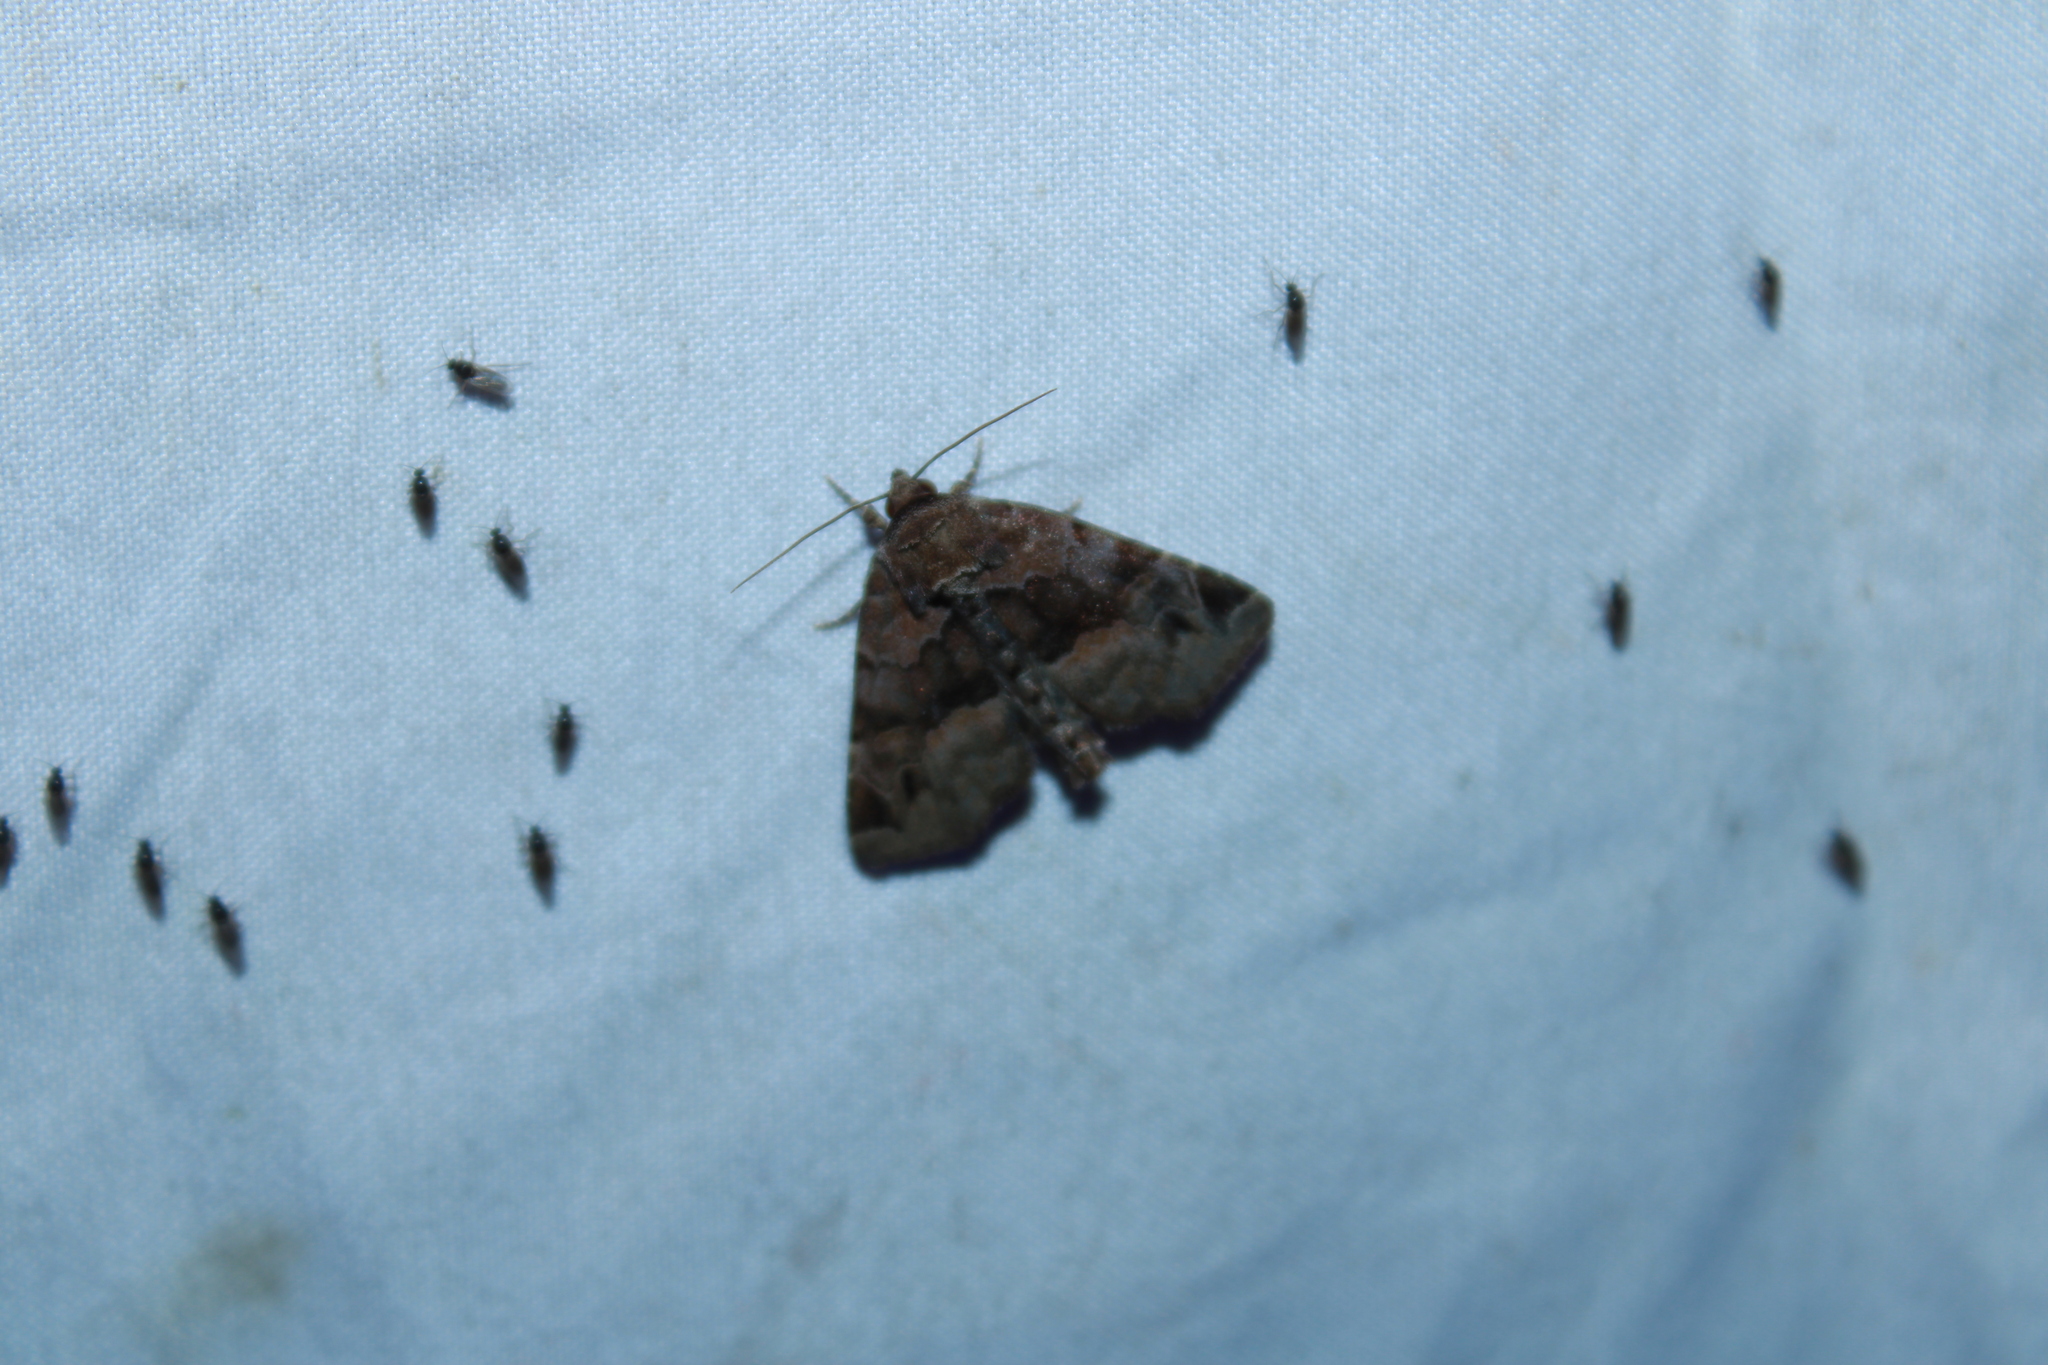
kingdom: Animalia
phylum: Arthropoda
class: Insecta
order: Lepidoptera
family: Noctuidae
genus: Niphonyx
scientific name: Niphonyx segregata
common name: Hops angleshade moth
